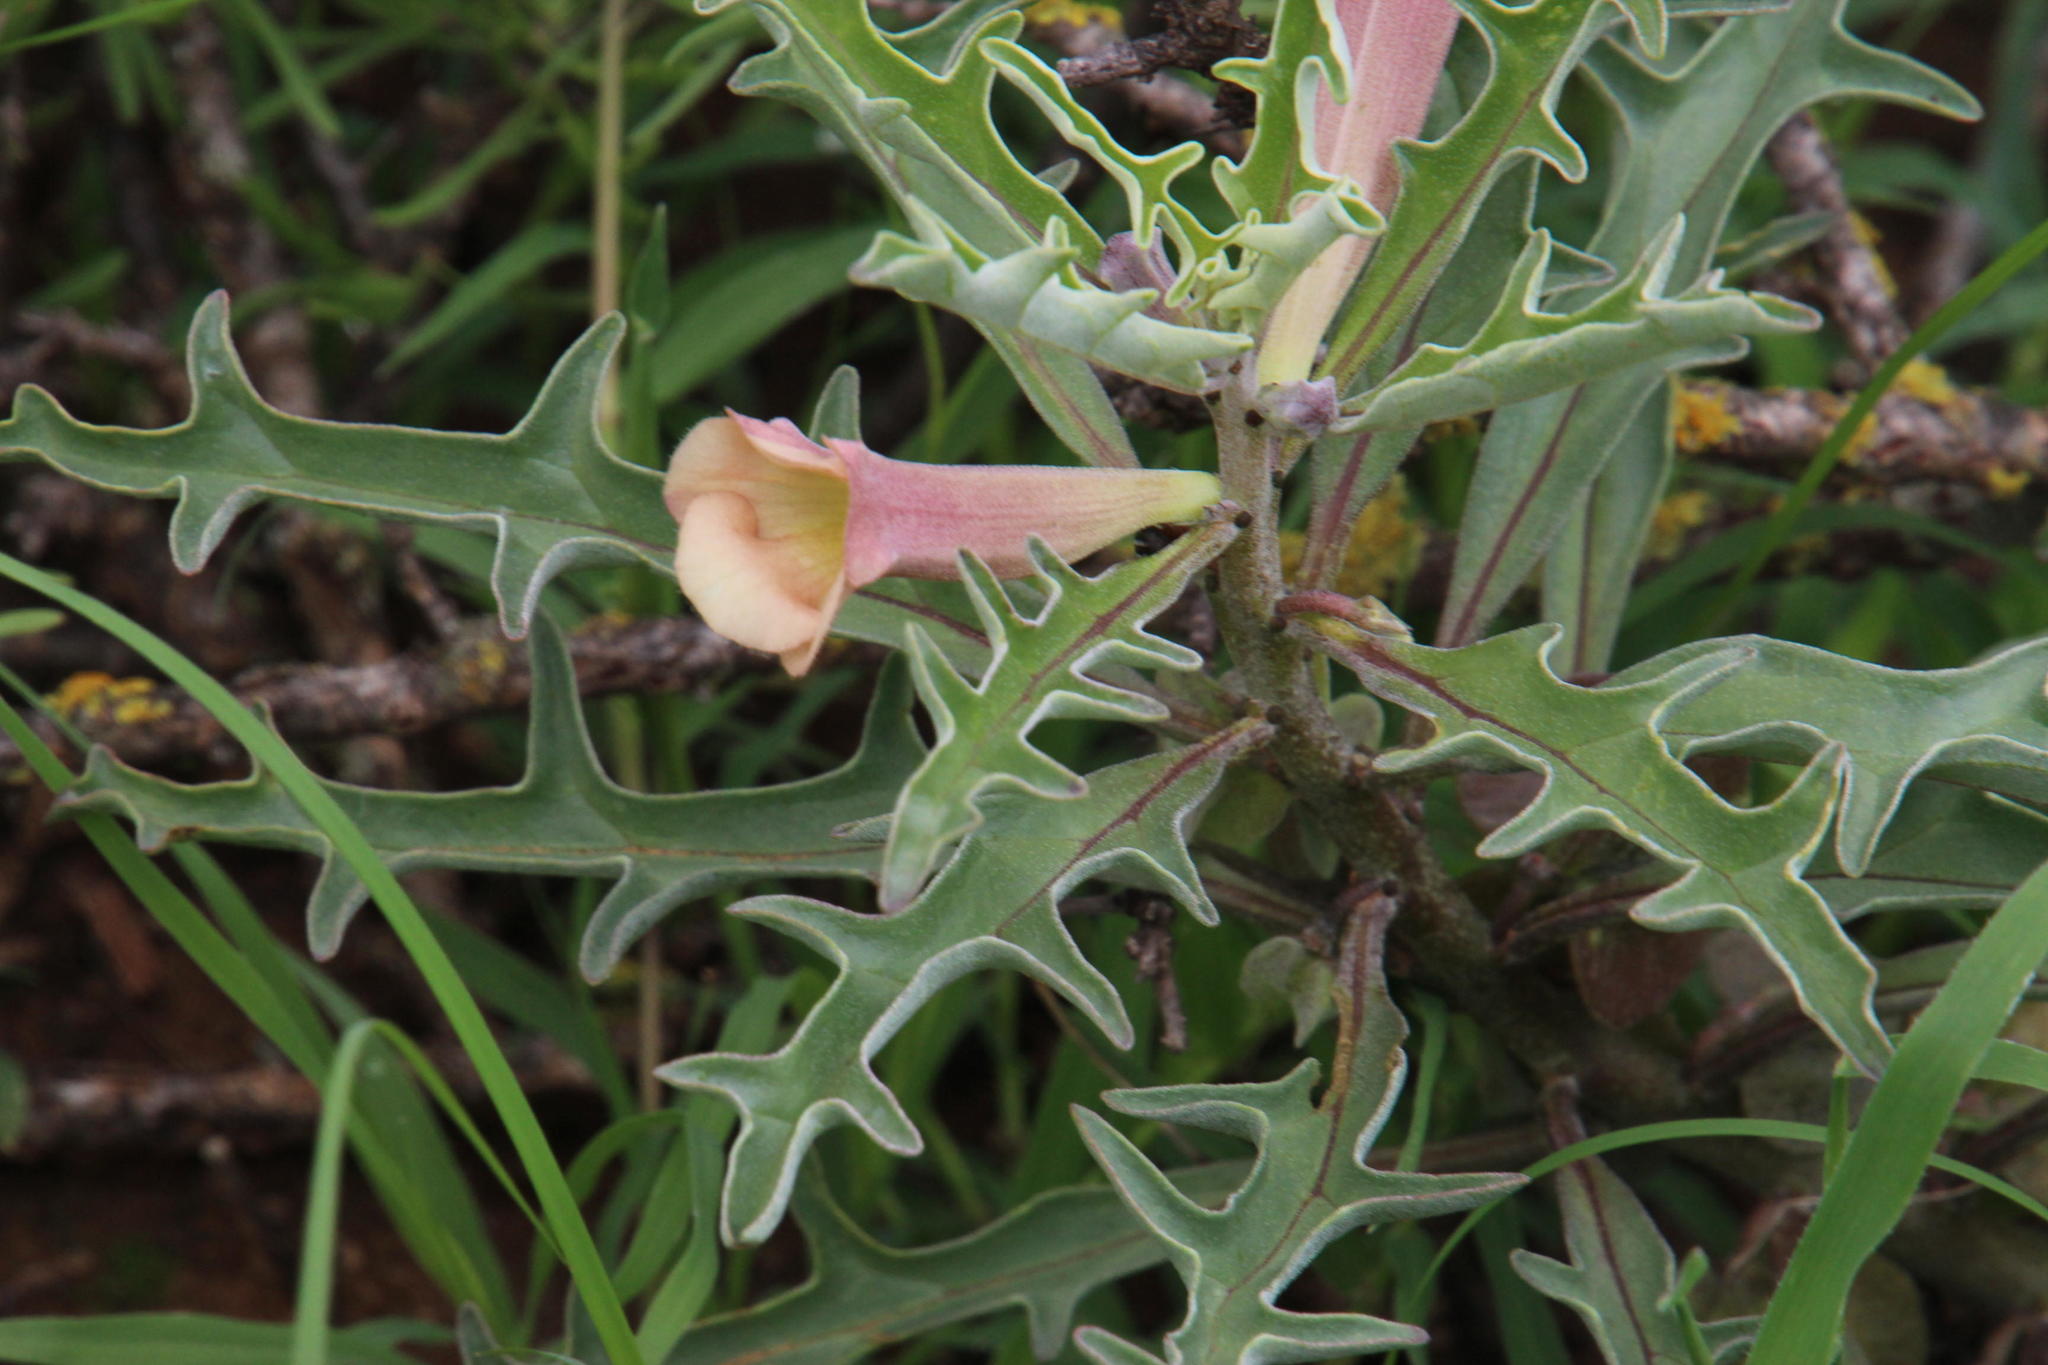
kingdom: Plantae
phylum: Tracheophyta
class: Magnoliopsida
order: Lamiales
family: Pedaliaceae
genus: Pterodiscus
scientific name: Pterodiscus luridus
